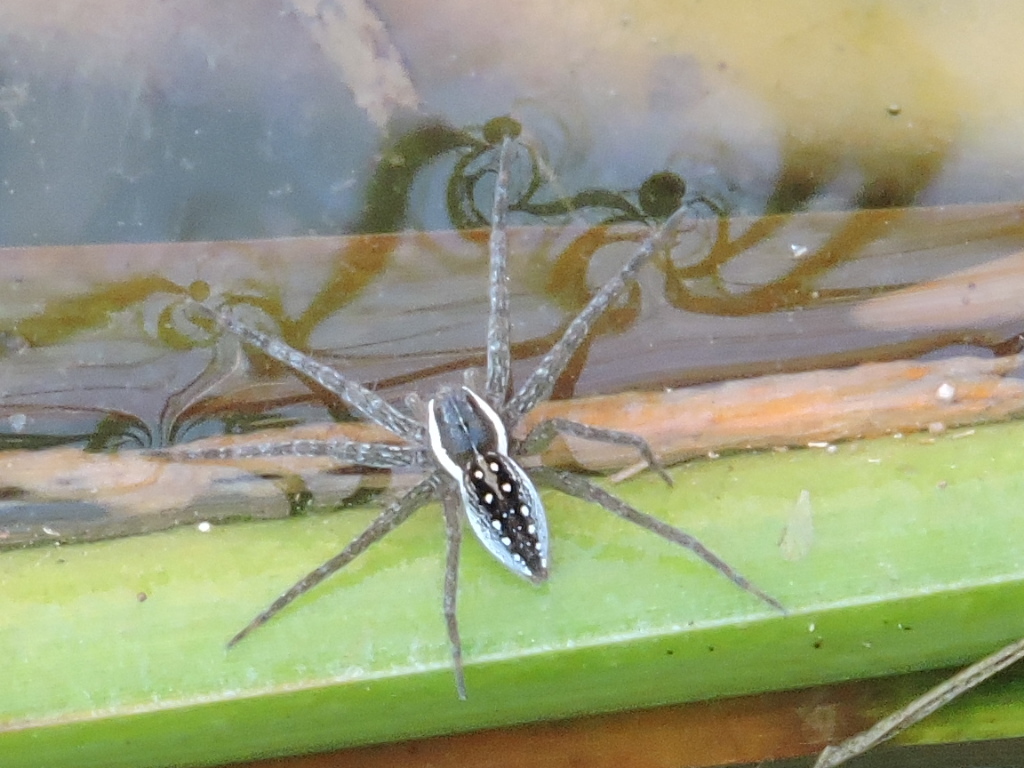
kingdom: Animalia
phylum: Arthropoda
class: Arachnida
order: Araneae
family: Pisauridae
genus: Dolomedes
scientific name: Dolomedes triton
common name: Six-spotted fishing spider
